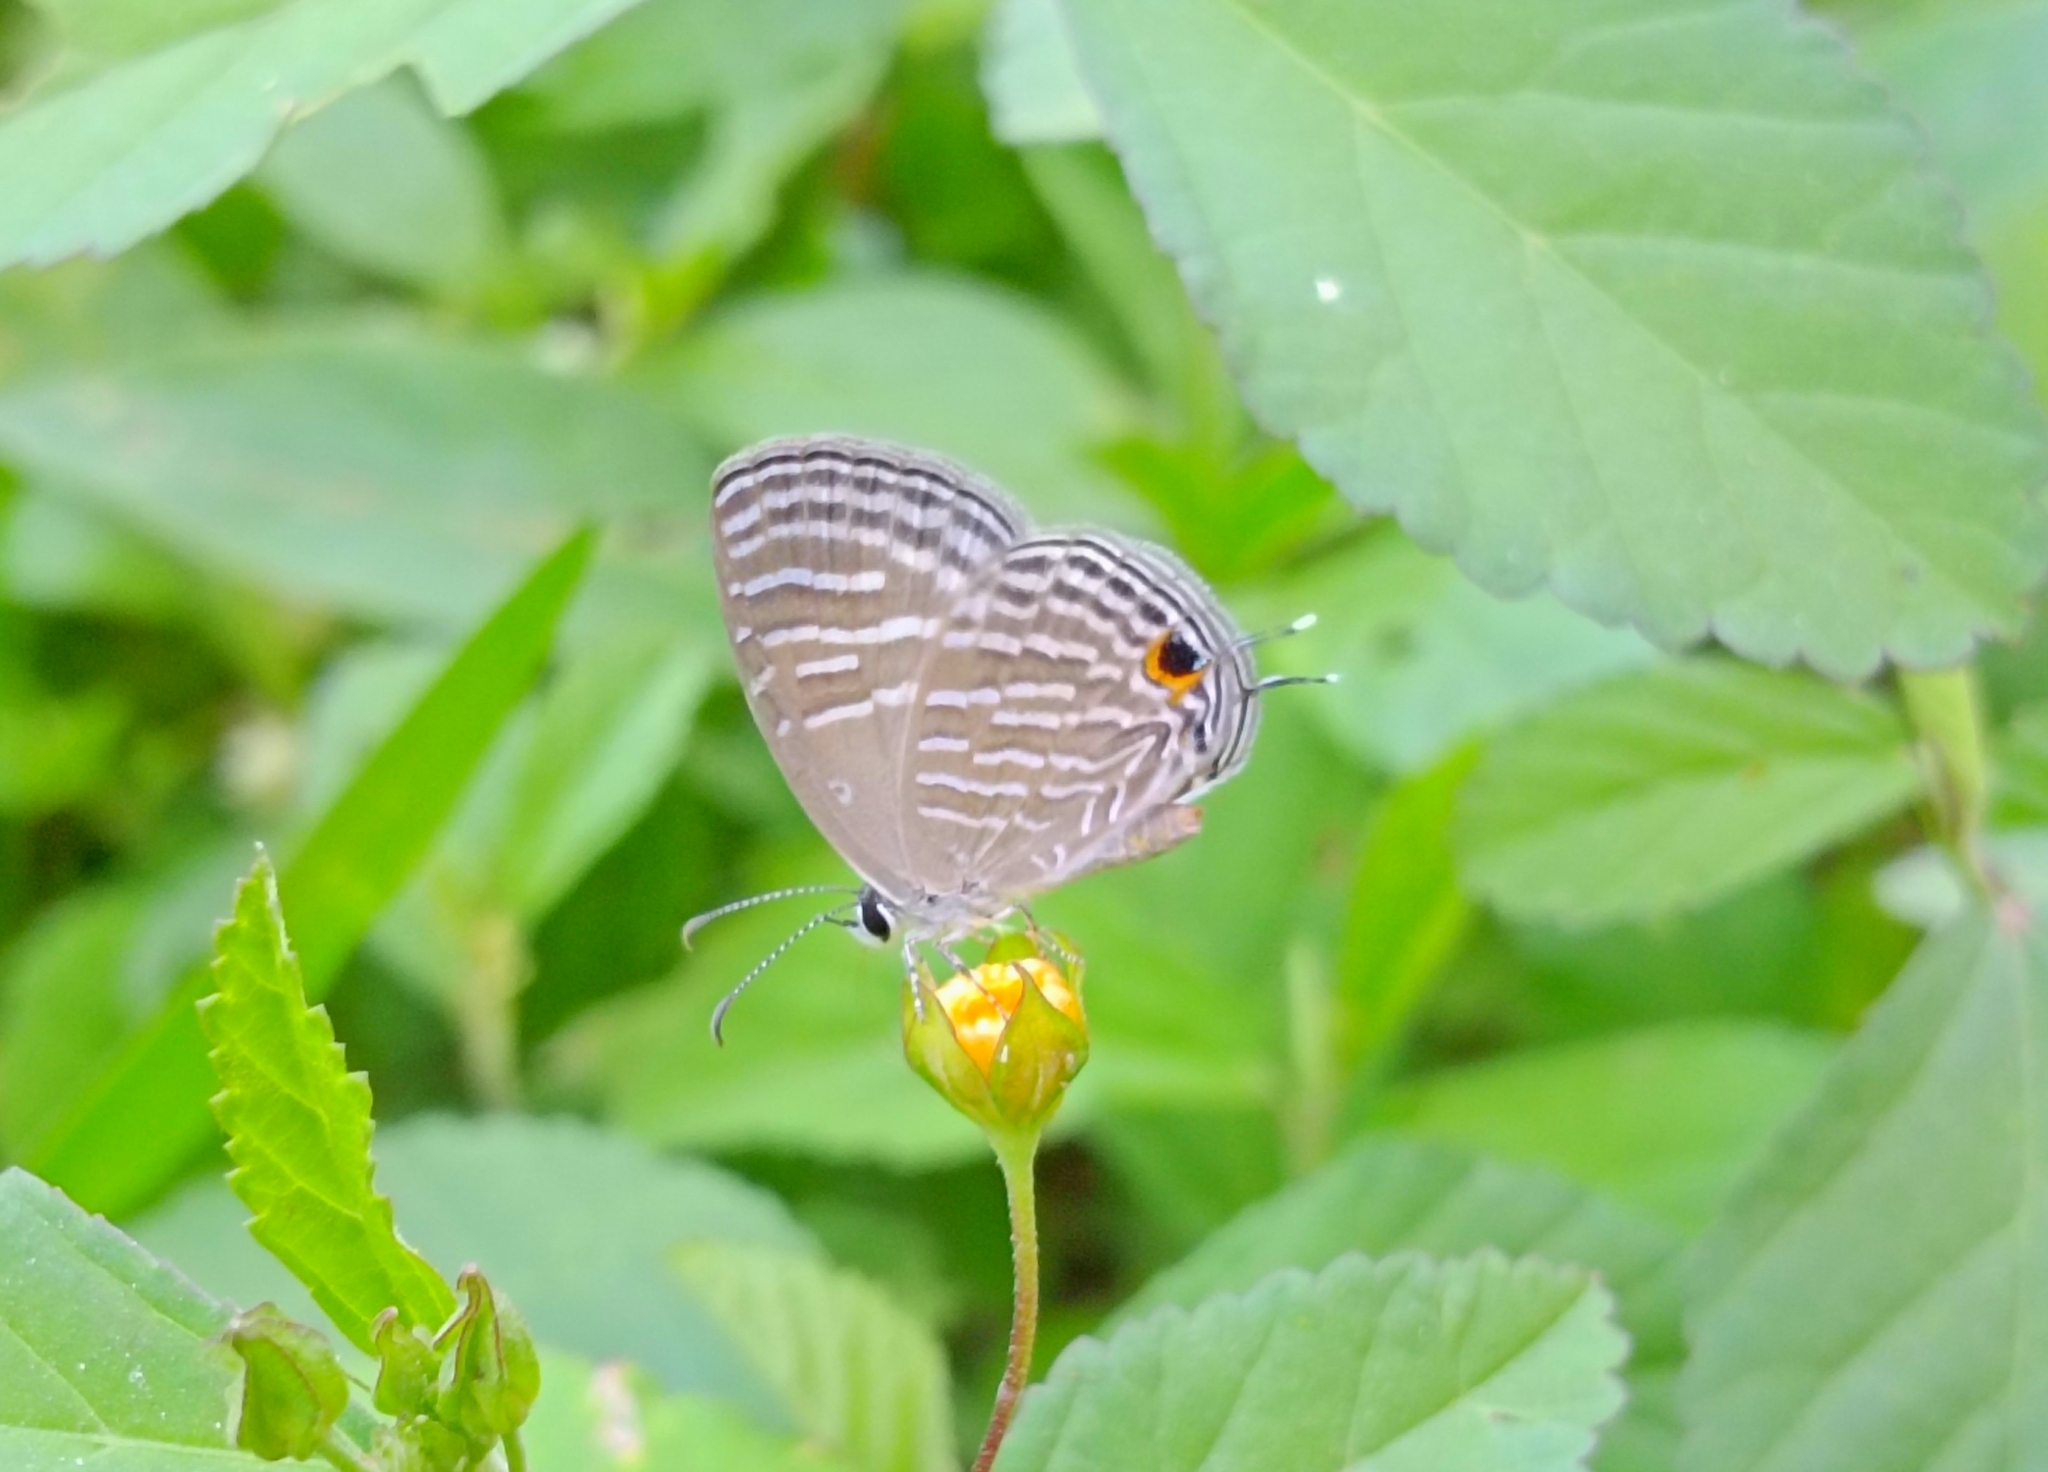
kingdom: Animalia
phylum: Arthropoda
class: Insecta
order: Lepidoptera
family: Lycaenidae
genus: Jamides
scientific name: Jamides celeno
